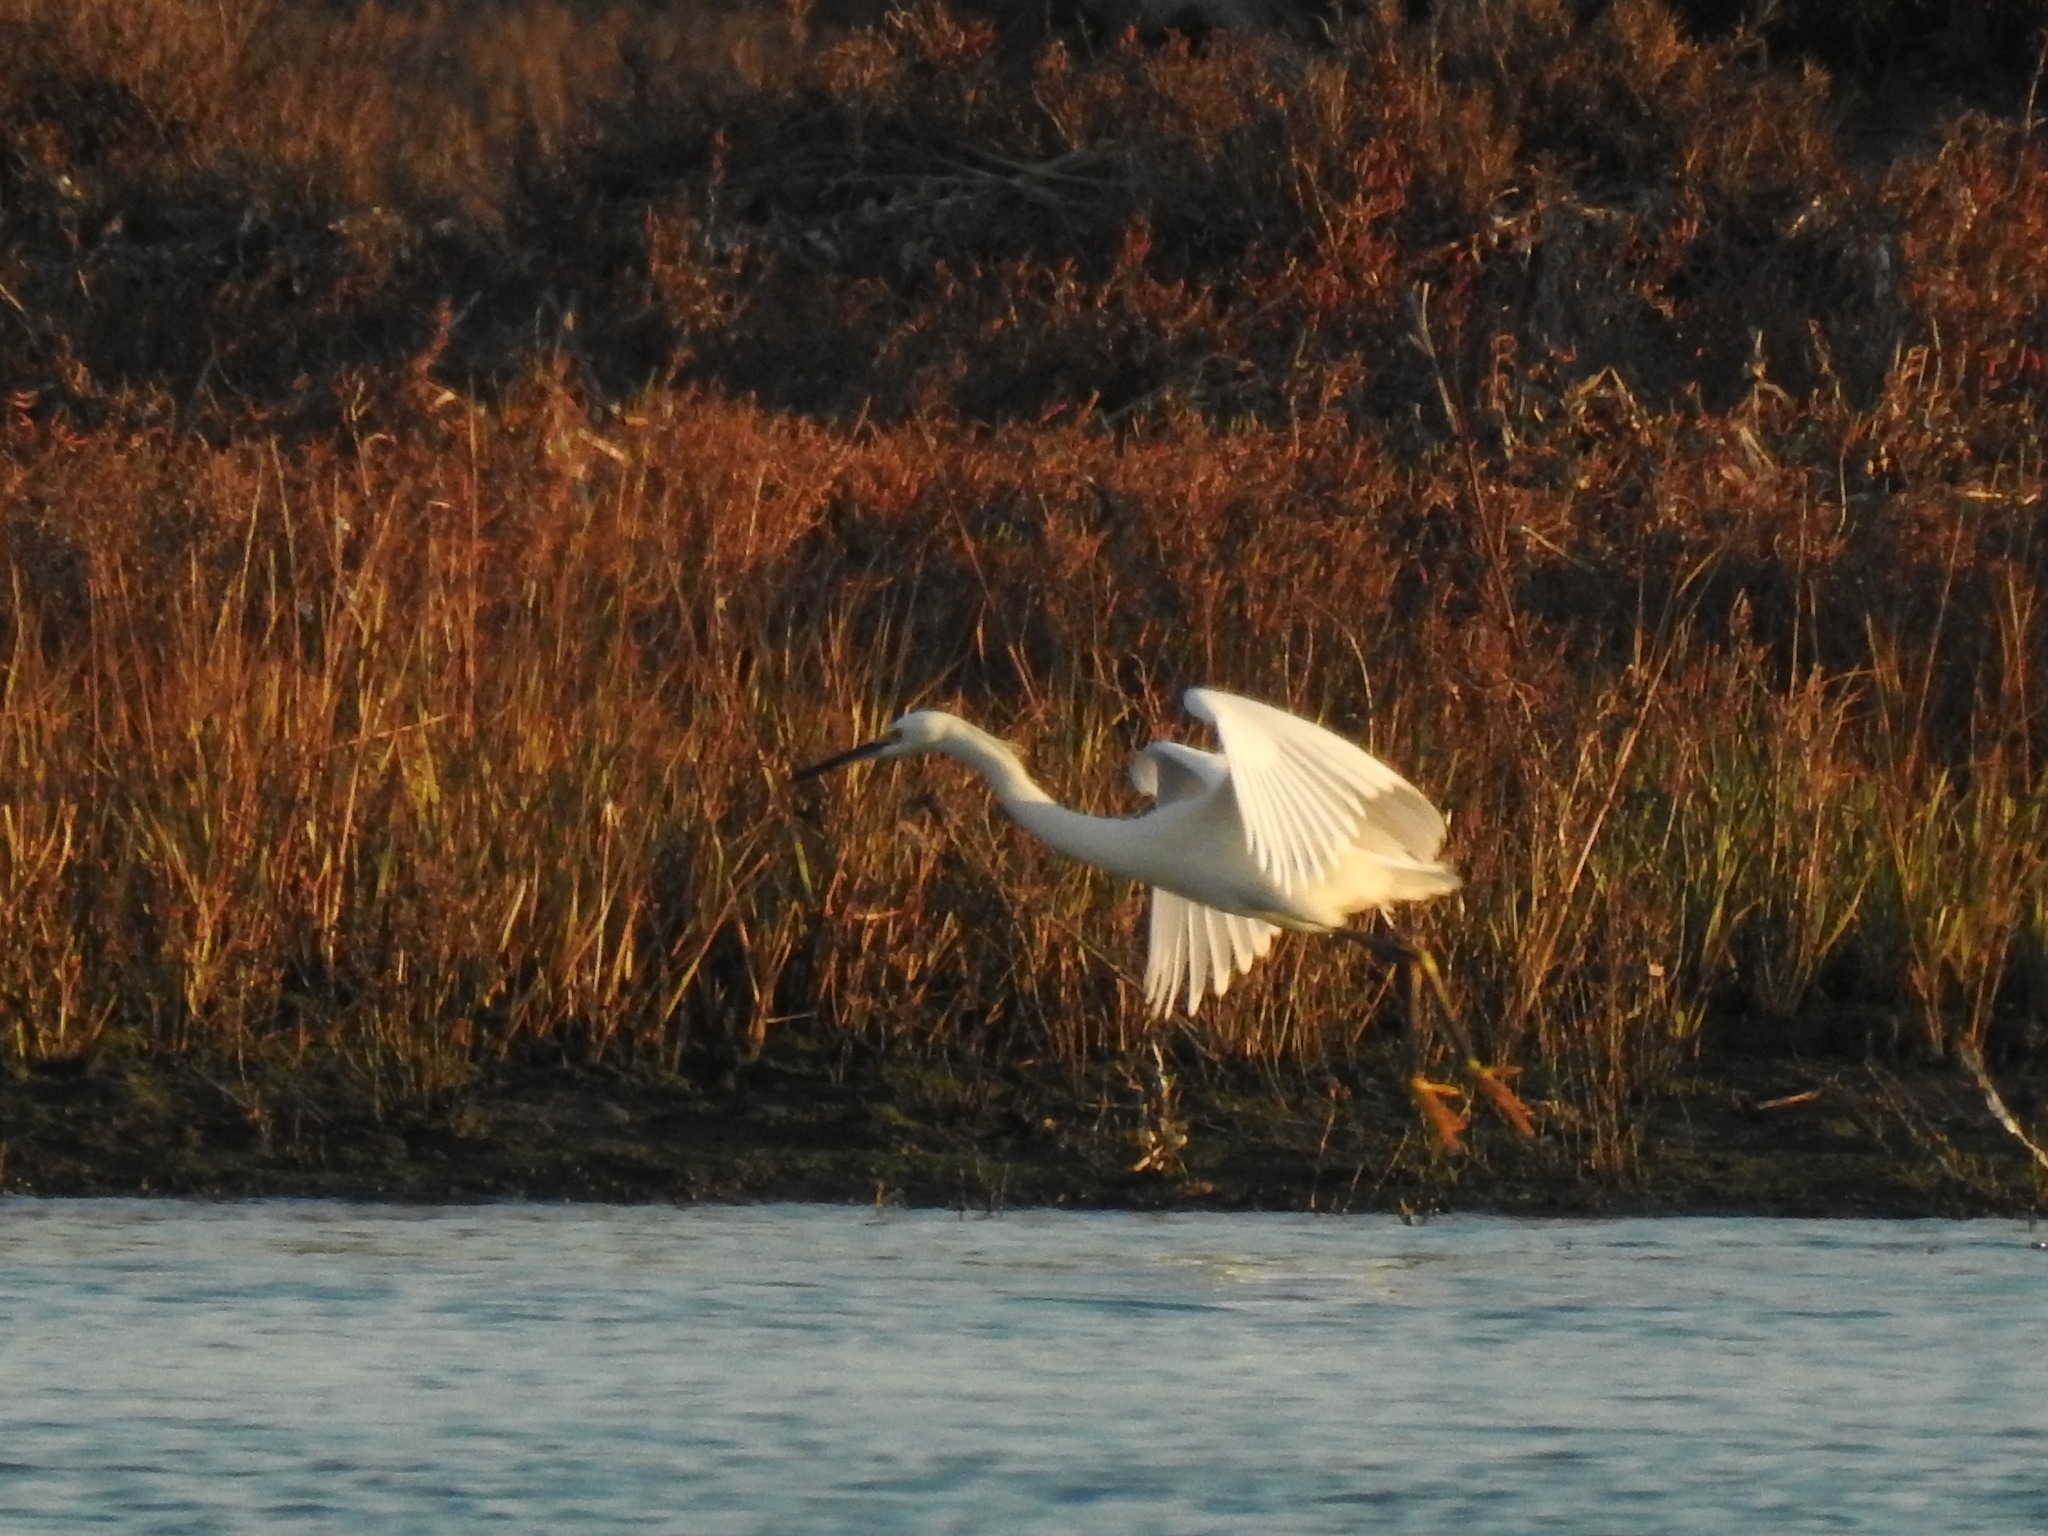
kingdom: Animalia
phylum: Chordata
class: Aves
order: Pelecaniformes
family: Ardeidae
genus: Egretta
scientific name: Egretta thula
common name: Snowy egret
